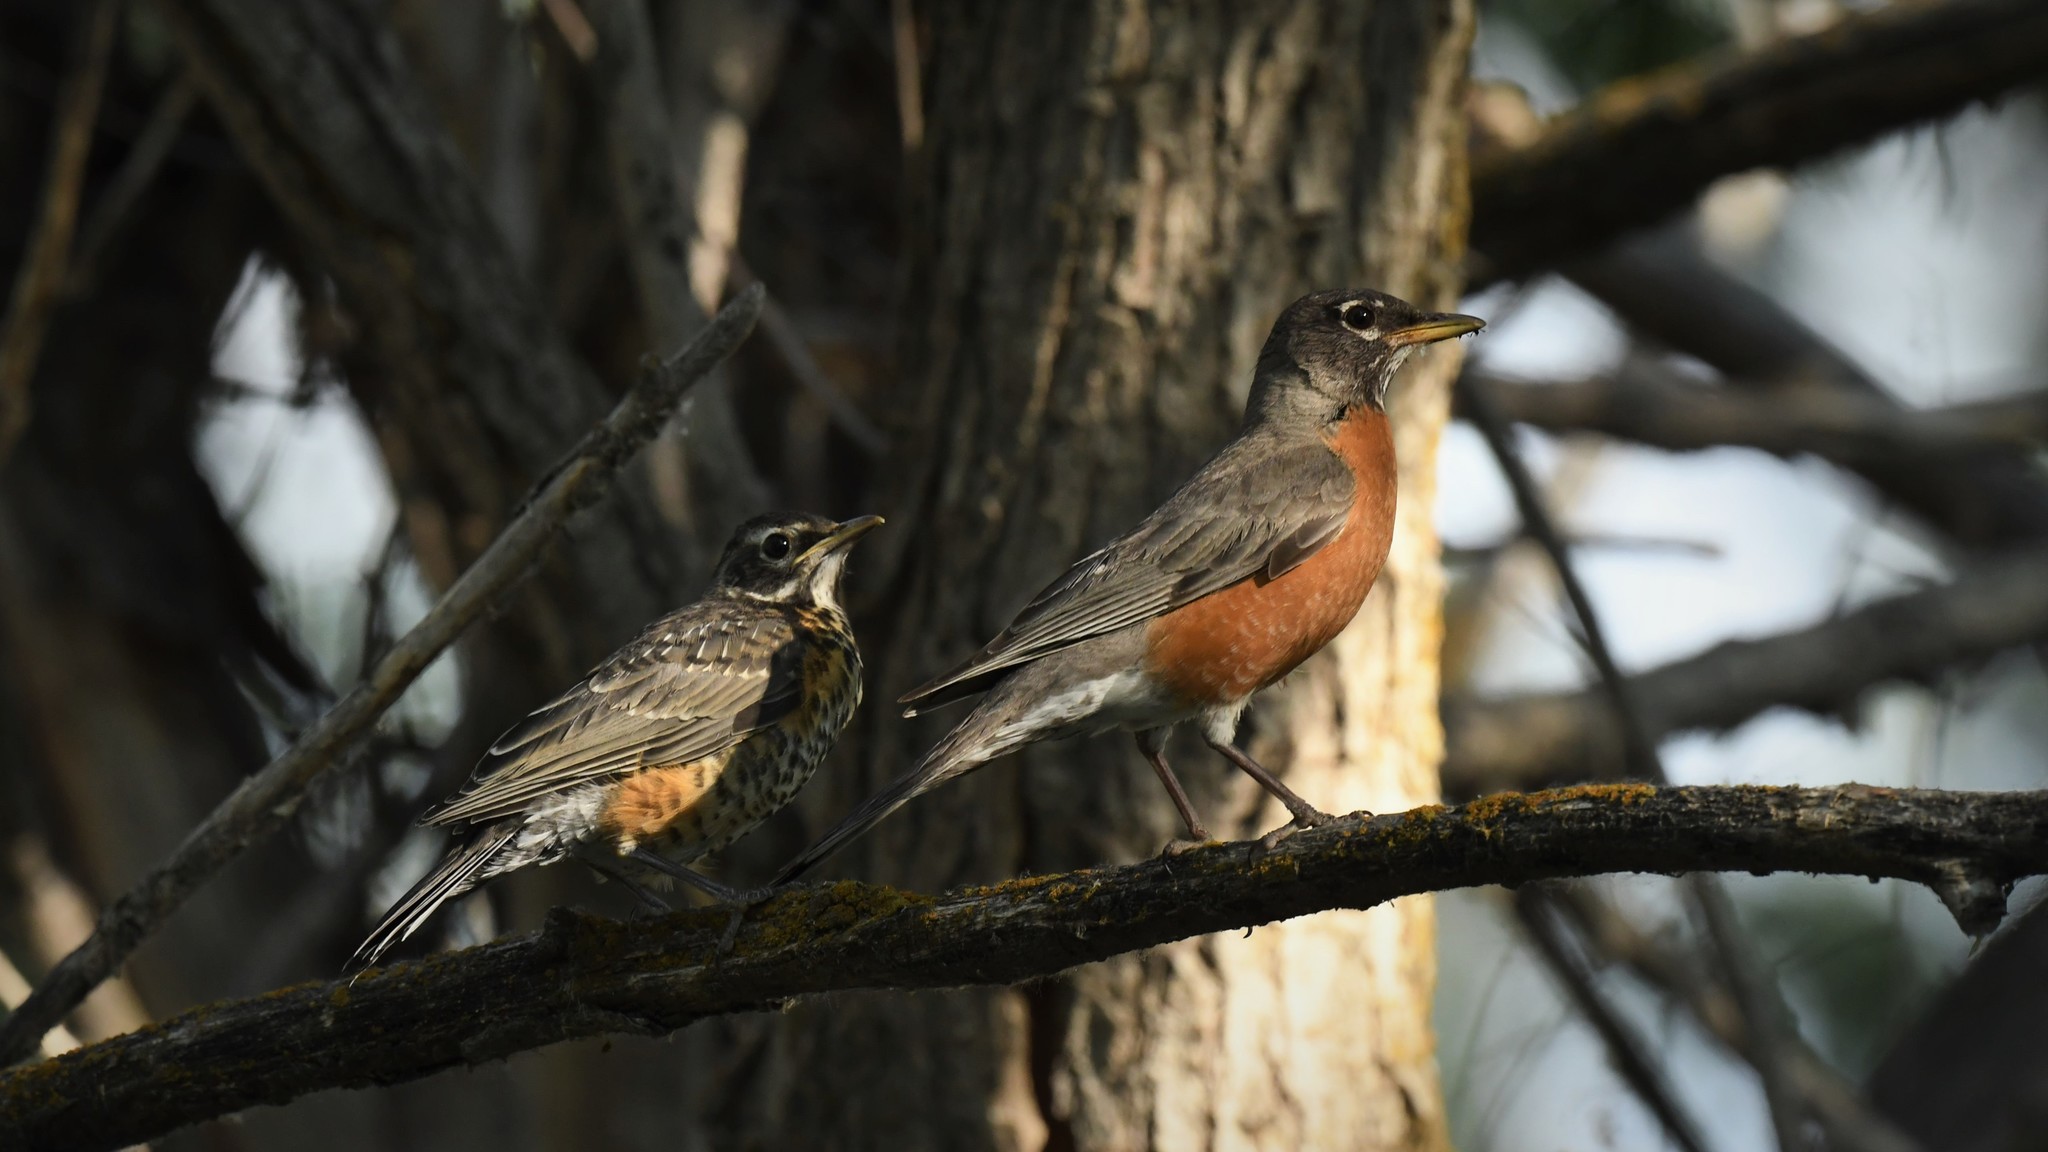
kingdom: Animalia
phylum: Chordata
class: Aves
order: Passeriformes
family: Turdidae
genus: Turdus
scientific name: Turdus migratorius
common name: American robin
